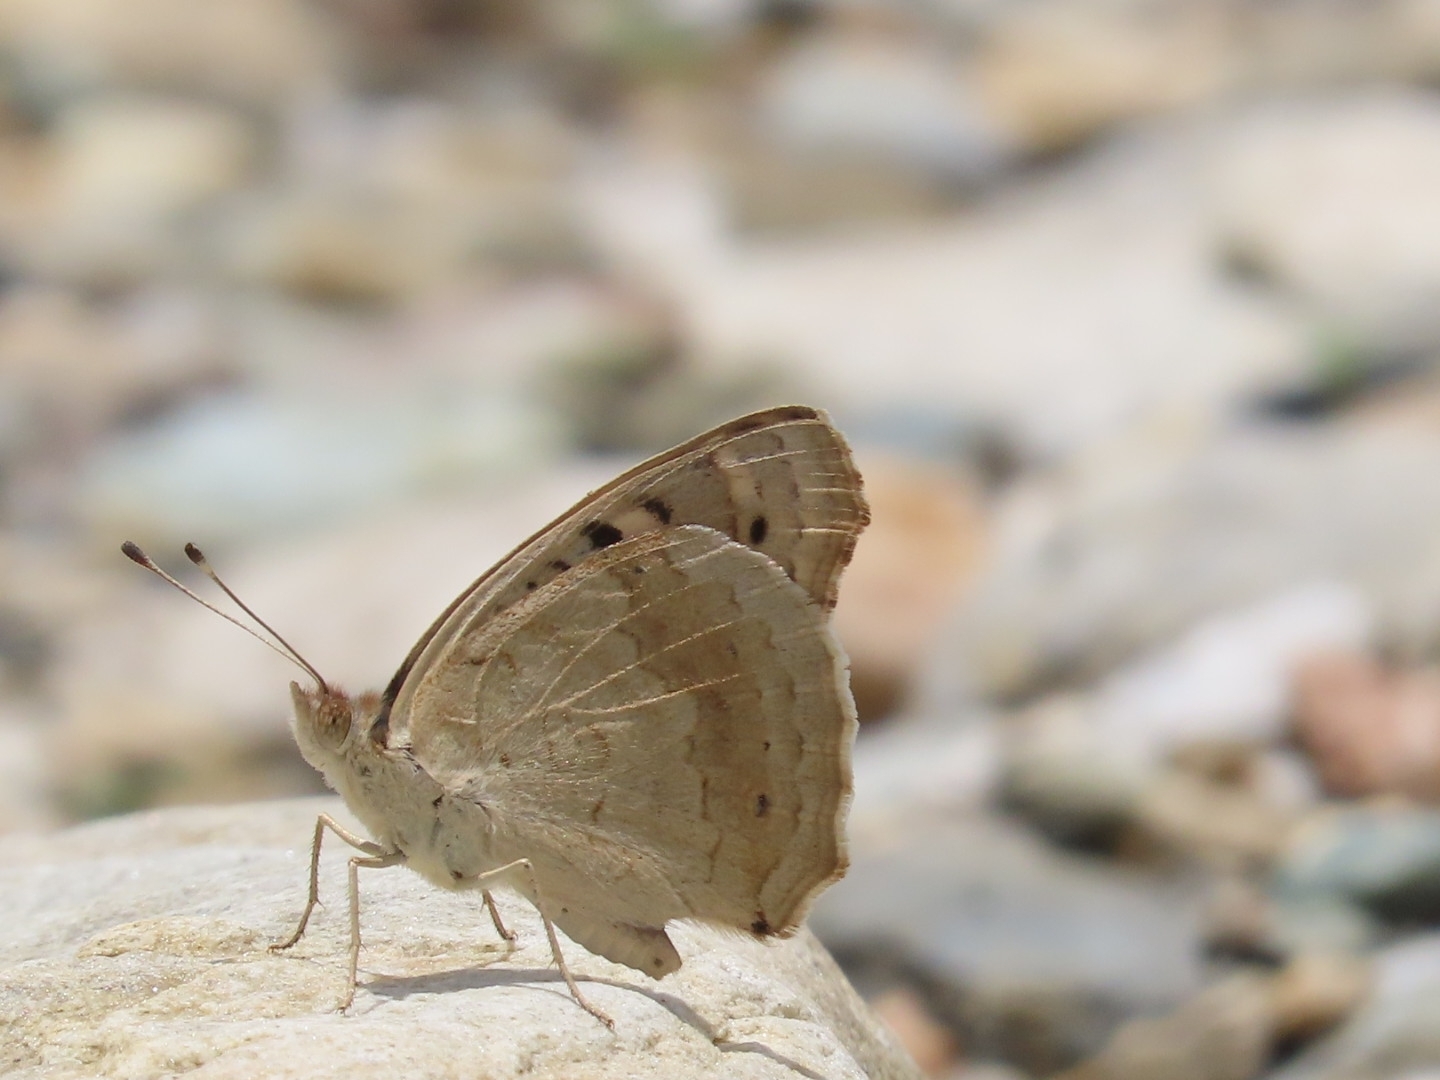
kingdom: Animalia
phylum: Arthropoda
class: Insecta
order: Lepidoptera
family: Nymphalidae
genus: Junonia
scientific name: Junonia orithya
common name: Blue pansy
